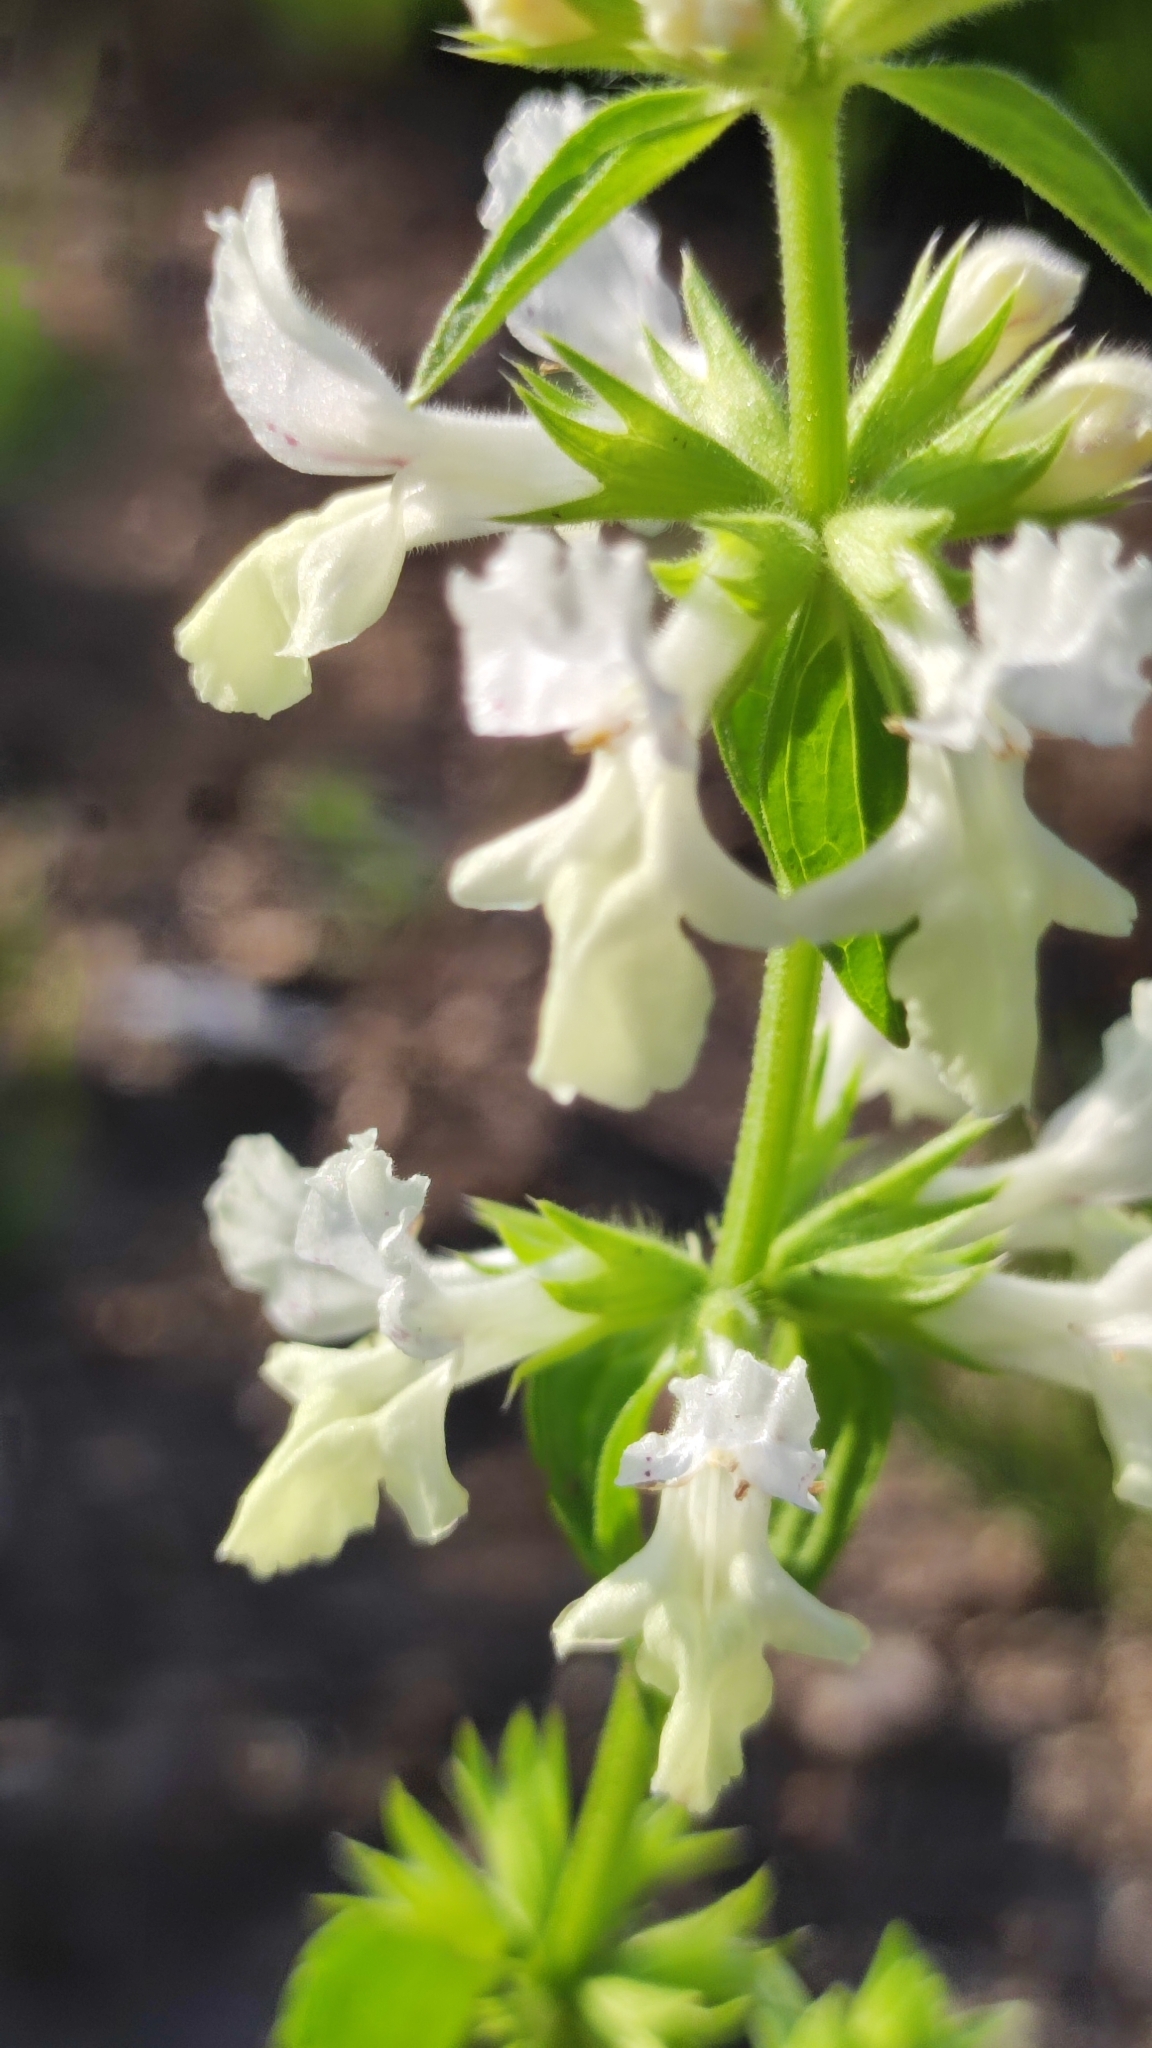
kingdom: Plantae
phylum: Tracheophyta
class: Magnoliopsida
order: Lamiales
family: Lamiaceae
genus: Stachys
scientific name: Stachys annua
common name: Annual yellow-woundwort
